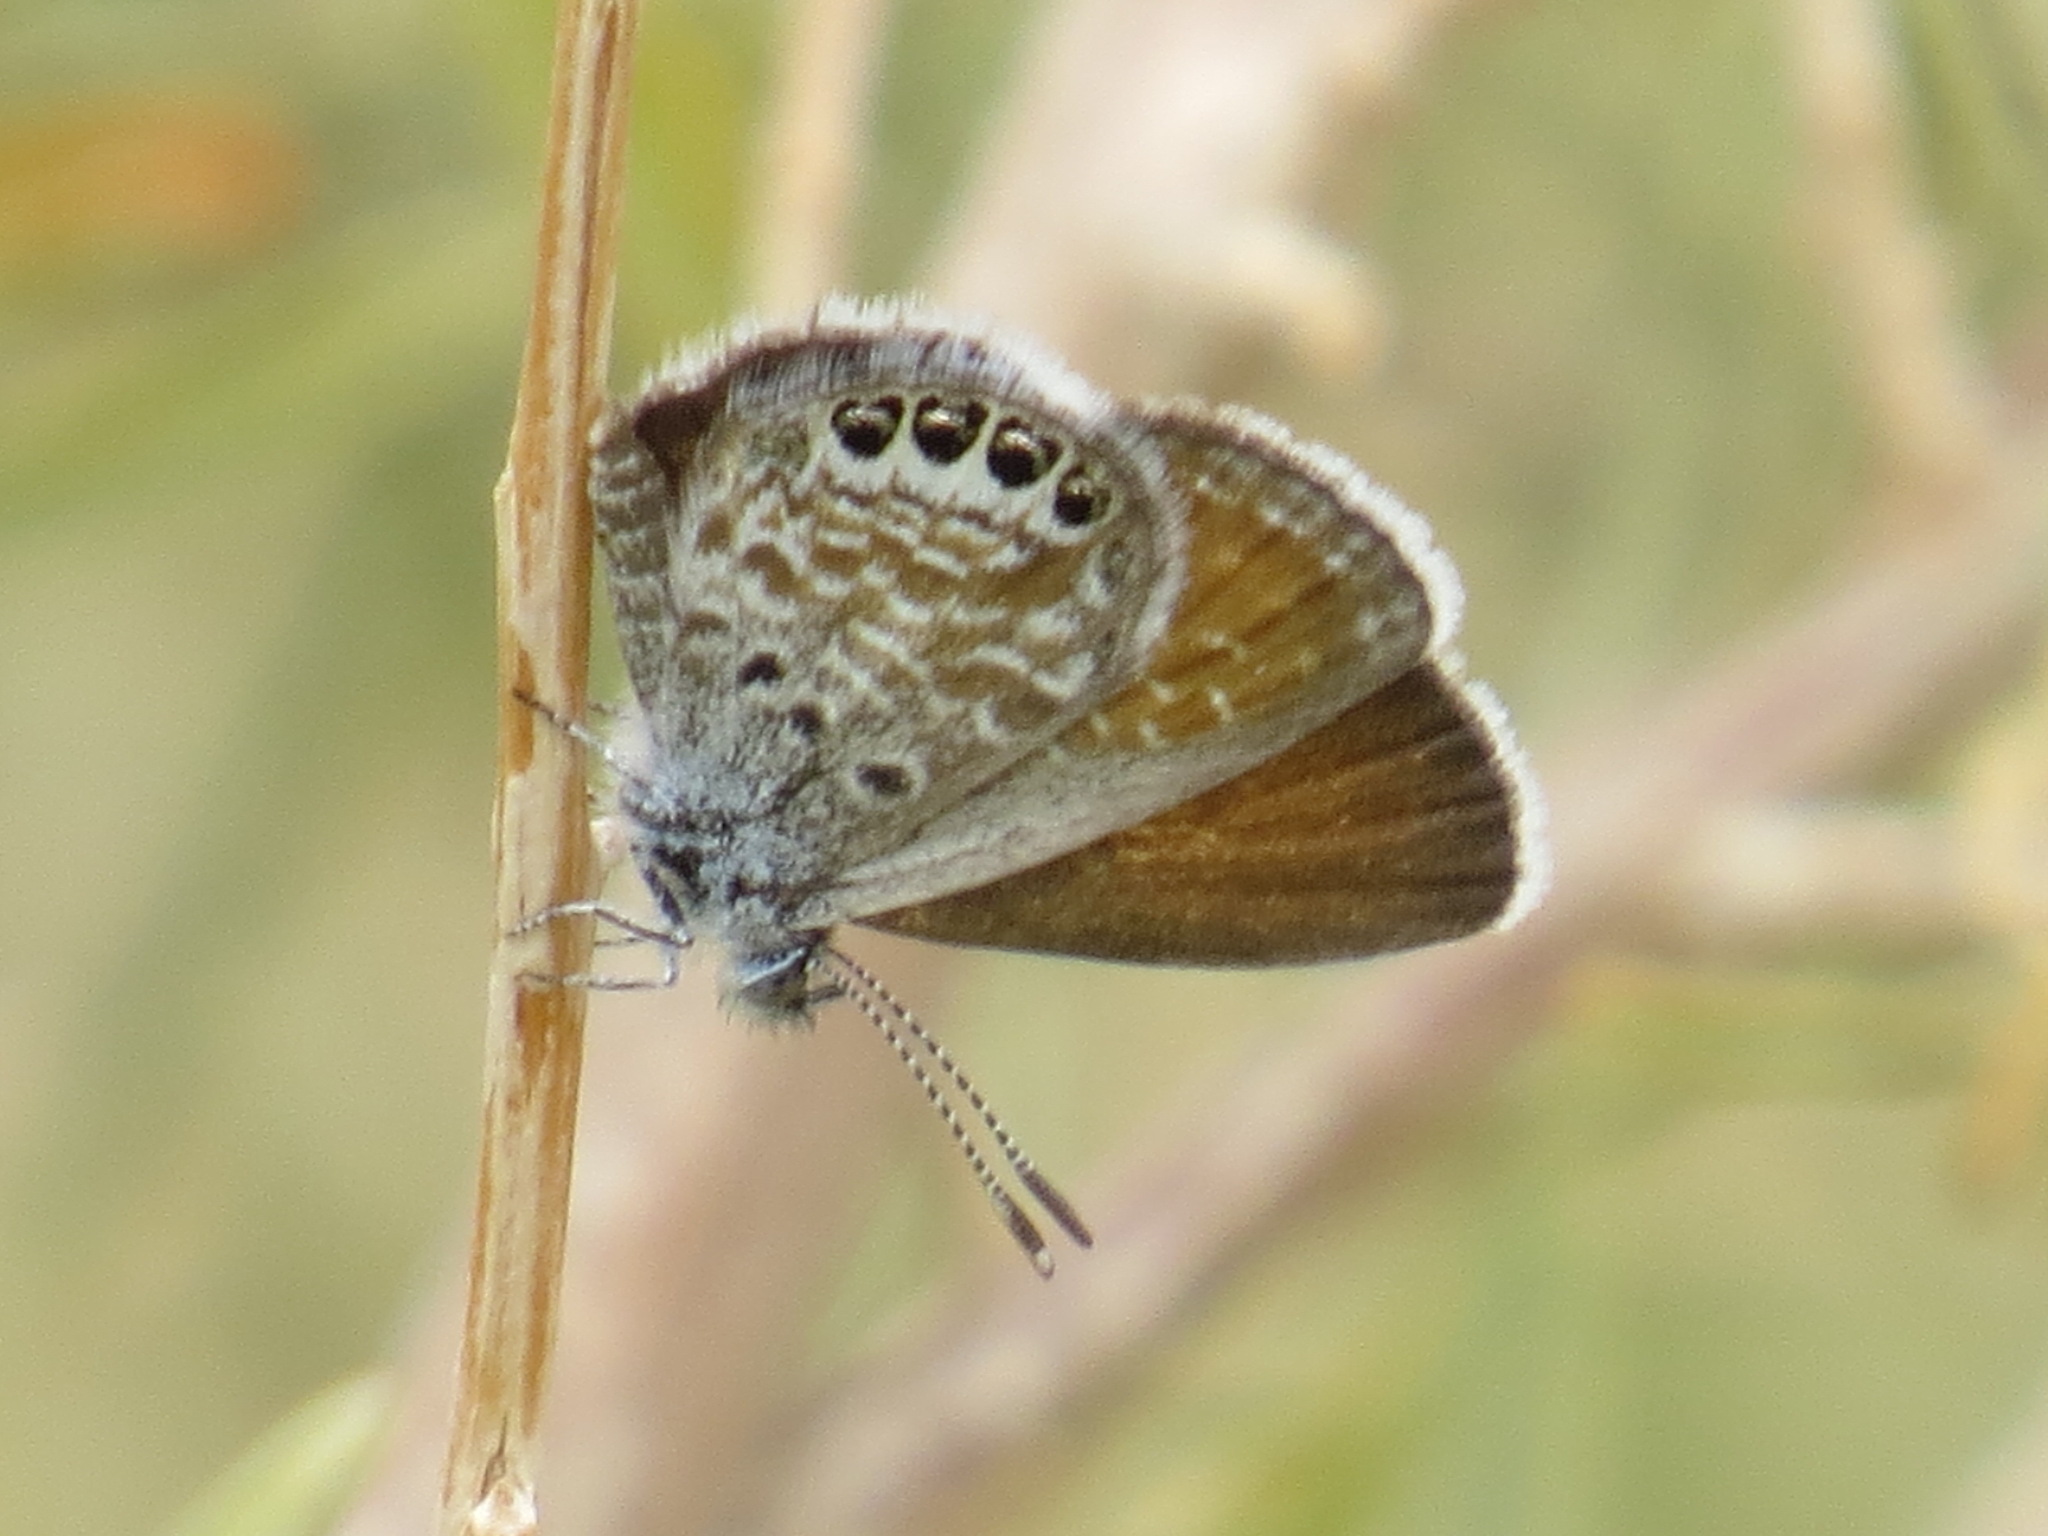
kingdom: Animalia
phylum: Arthropoda
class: Insecta
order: Lepidoptera
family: Lycaenidae
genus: Brephidium
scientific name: Brephidium exilis
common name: Pygmy blue
